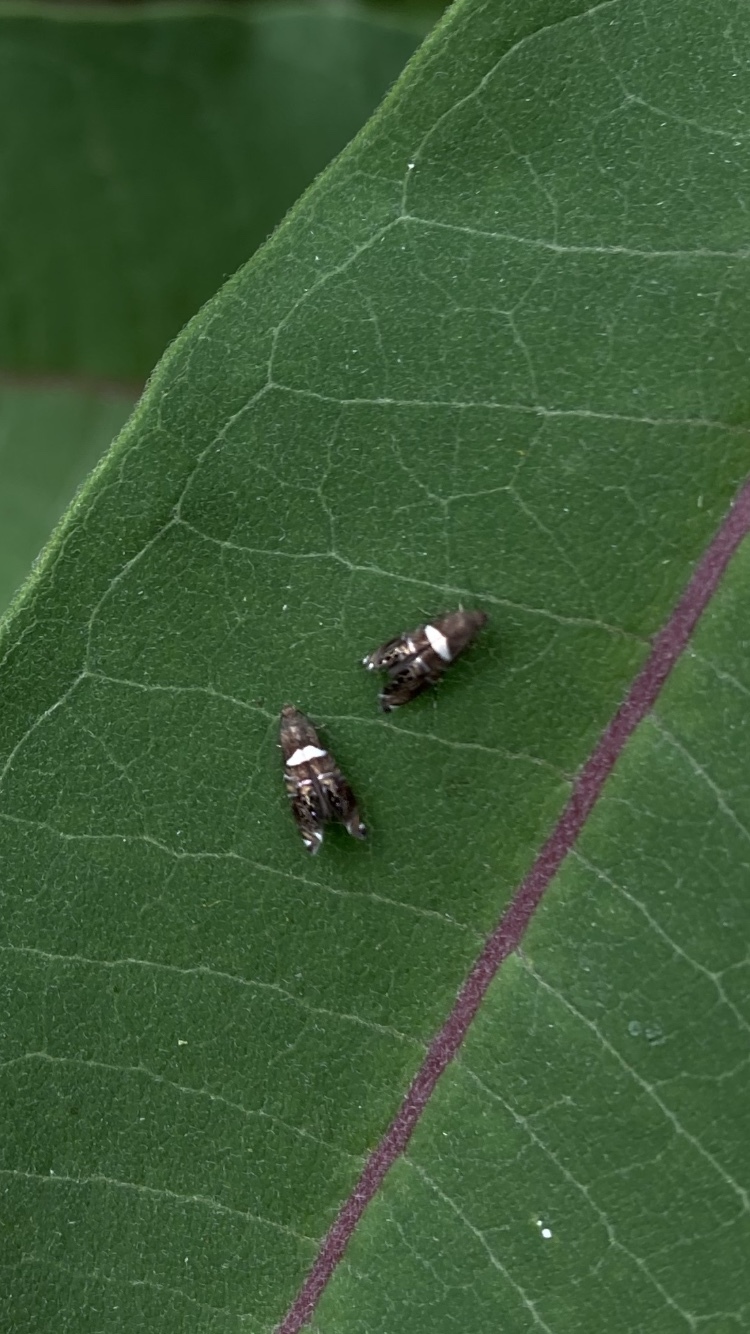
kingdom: Animalia
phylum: Arthropoda
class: Insecta
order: Lepidoptera
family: Glyphipterigidae
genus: Glyphipterix
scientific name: Glyphipterix Diploschizia impigritella
